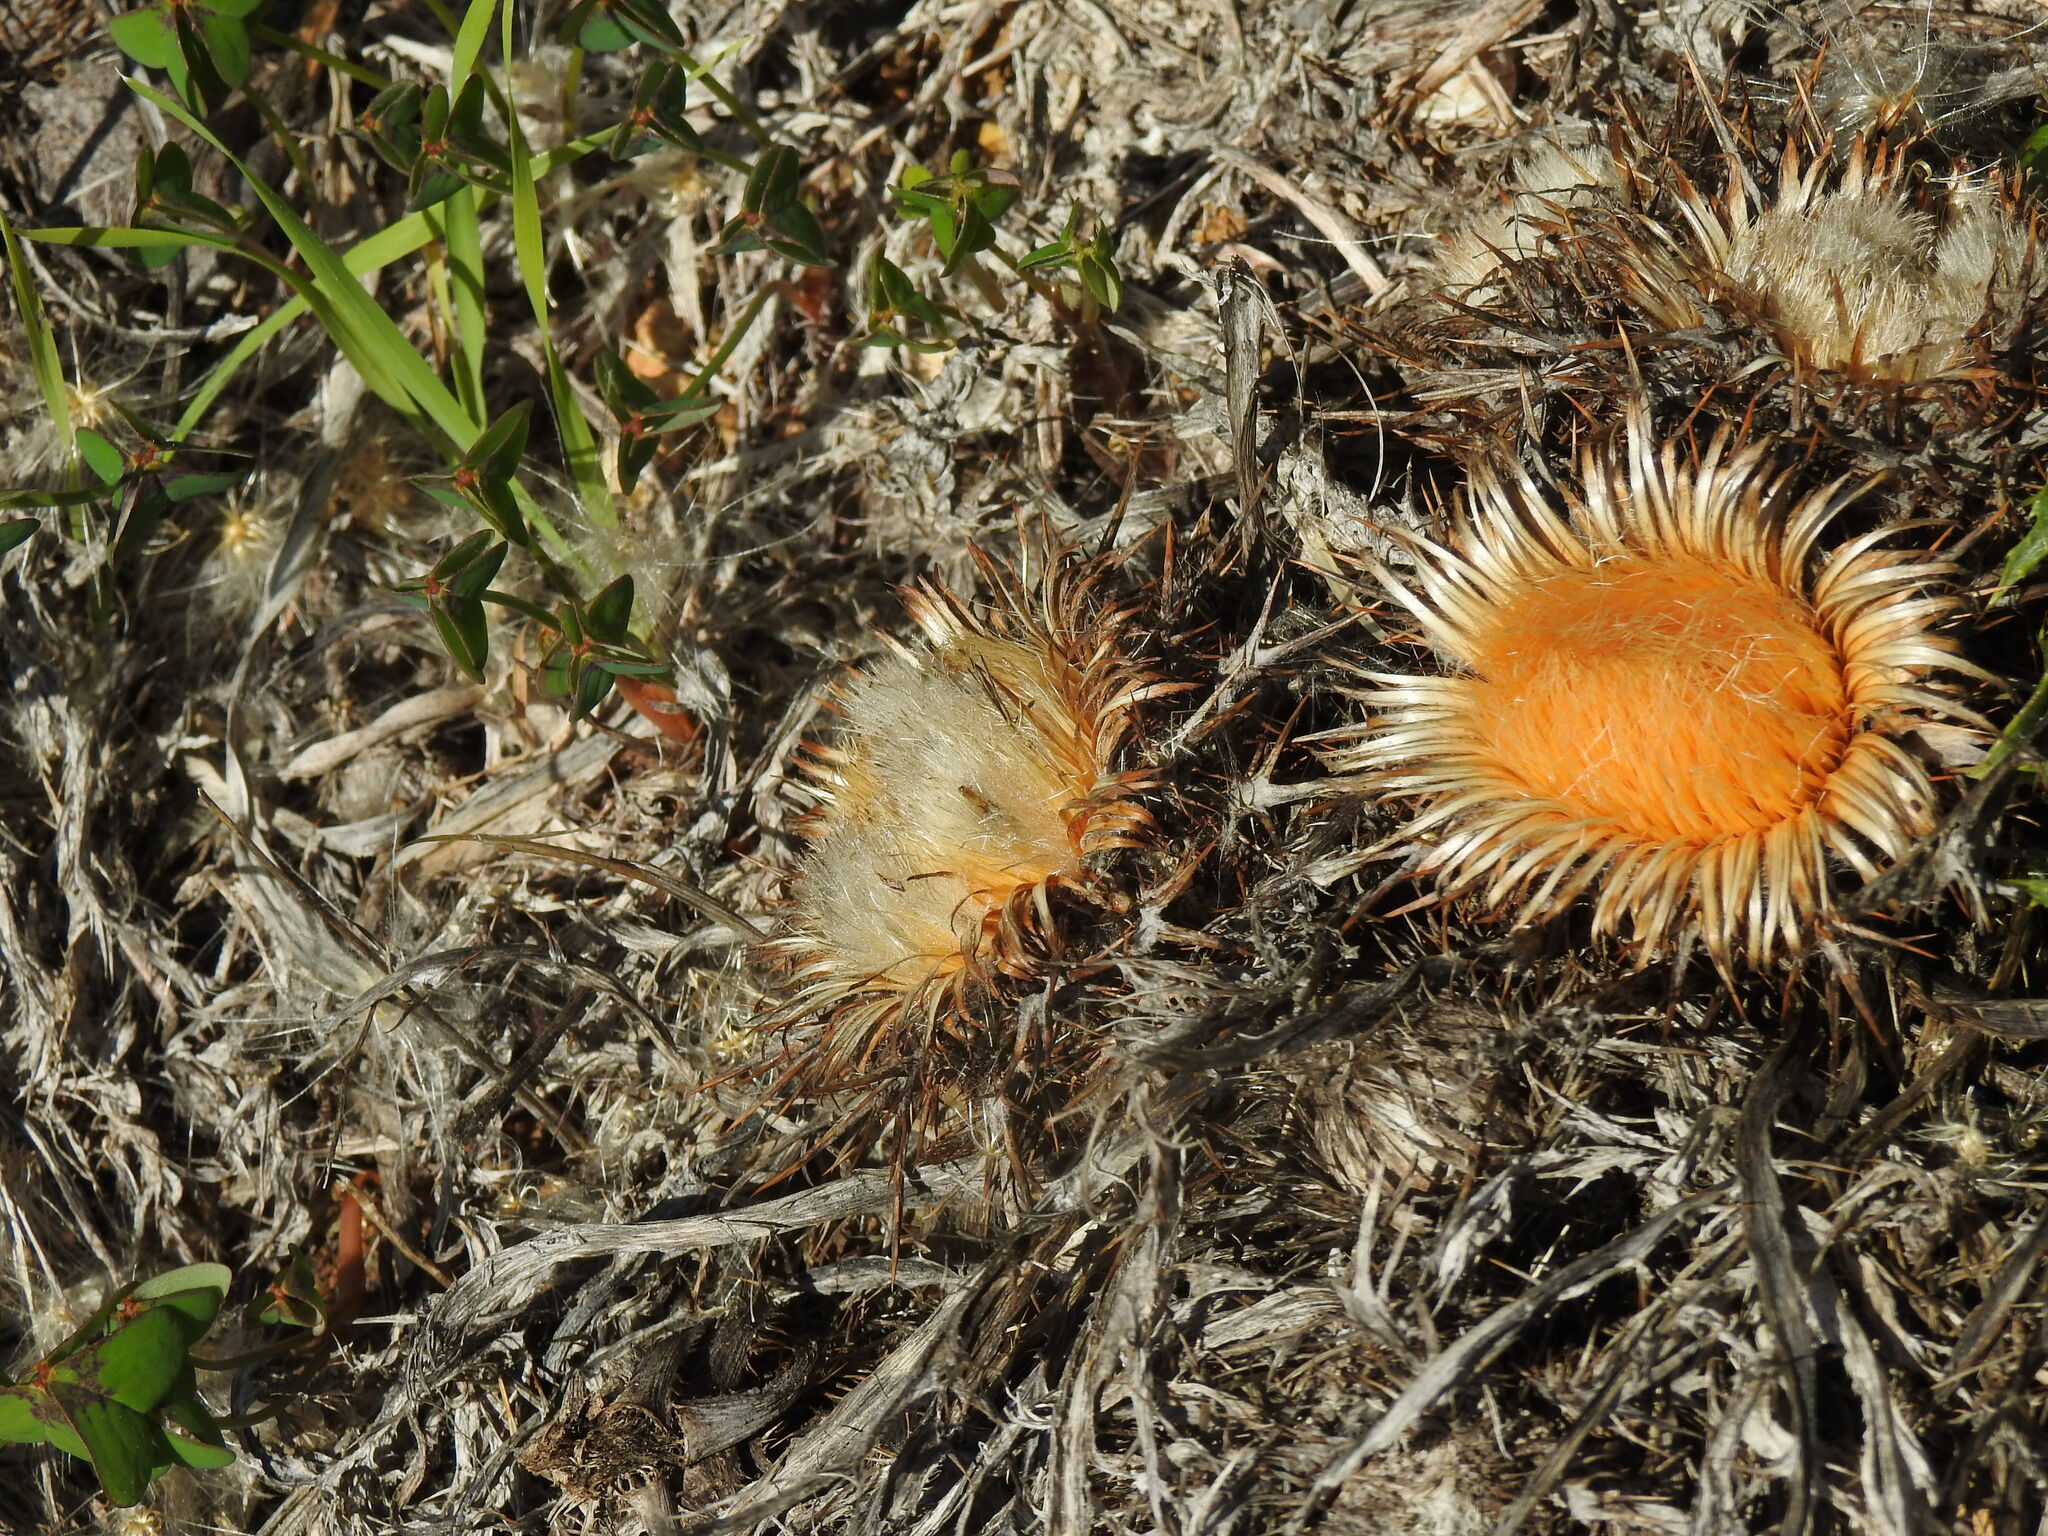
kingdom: Plantae
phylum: Tracheophyta
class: Magnoliopsida
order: Asterales
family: Asteraceae
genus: Chamaeleon
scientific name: Chamaeleon gummifer
